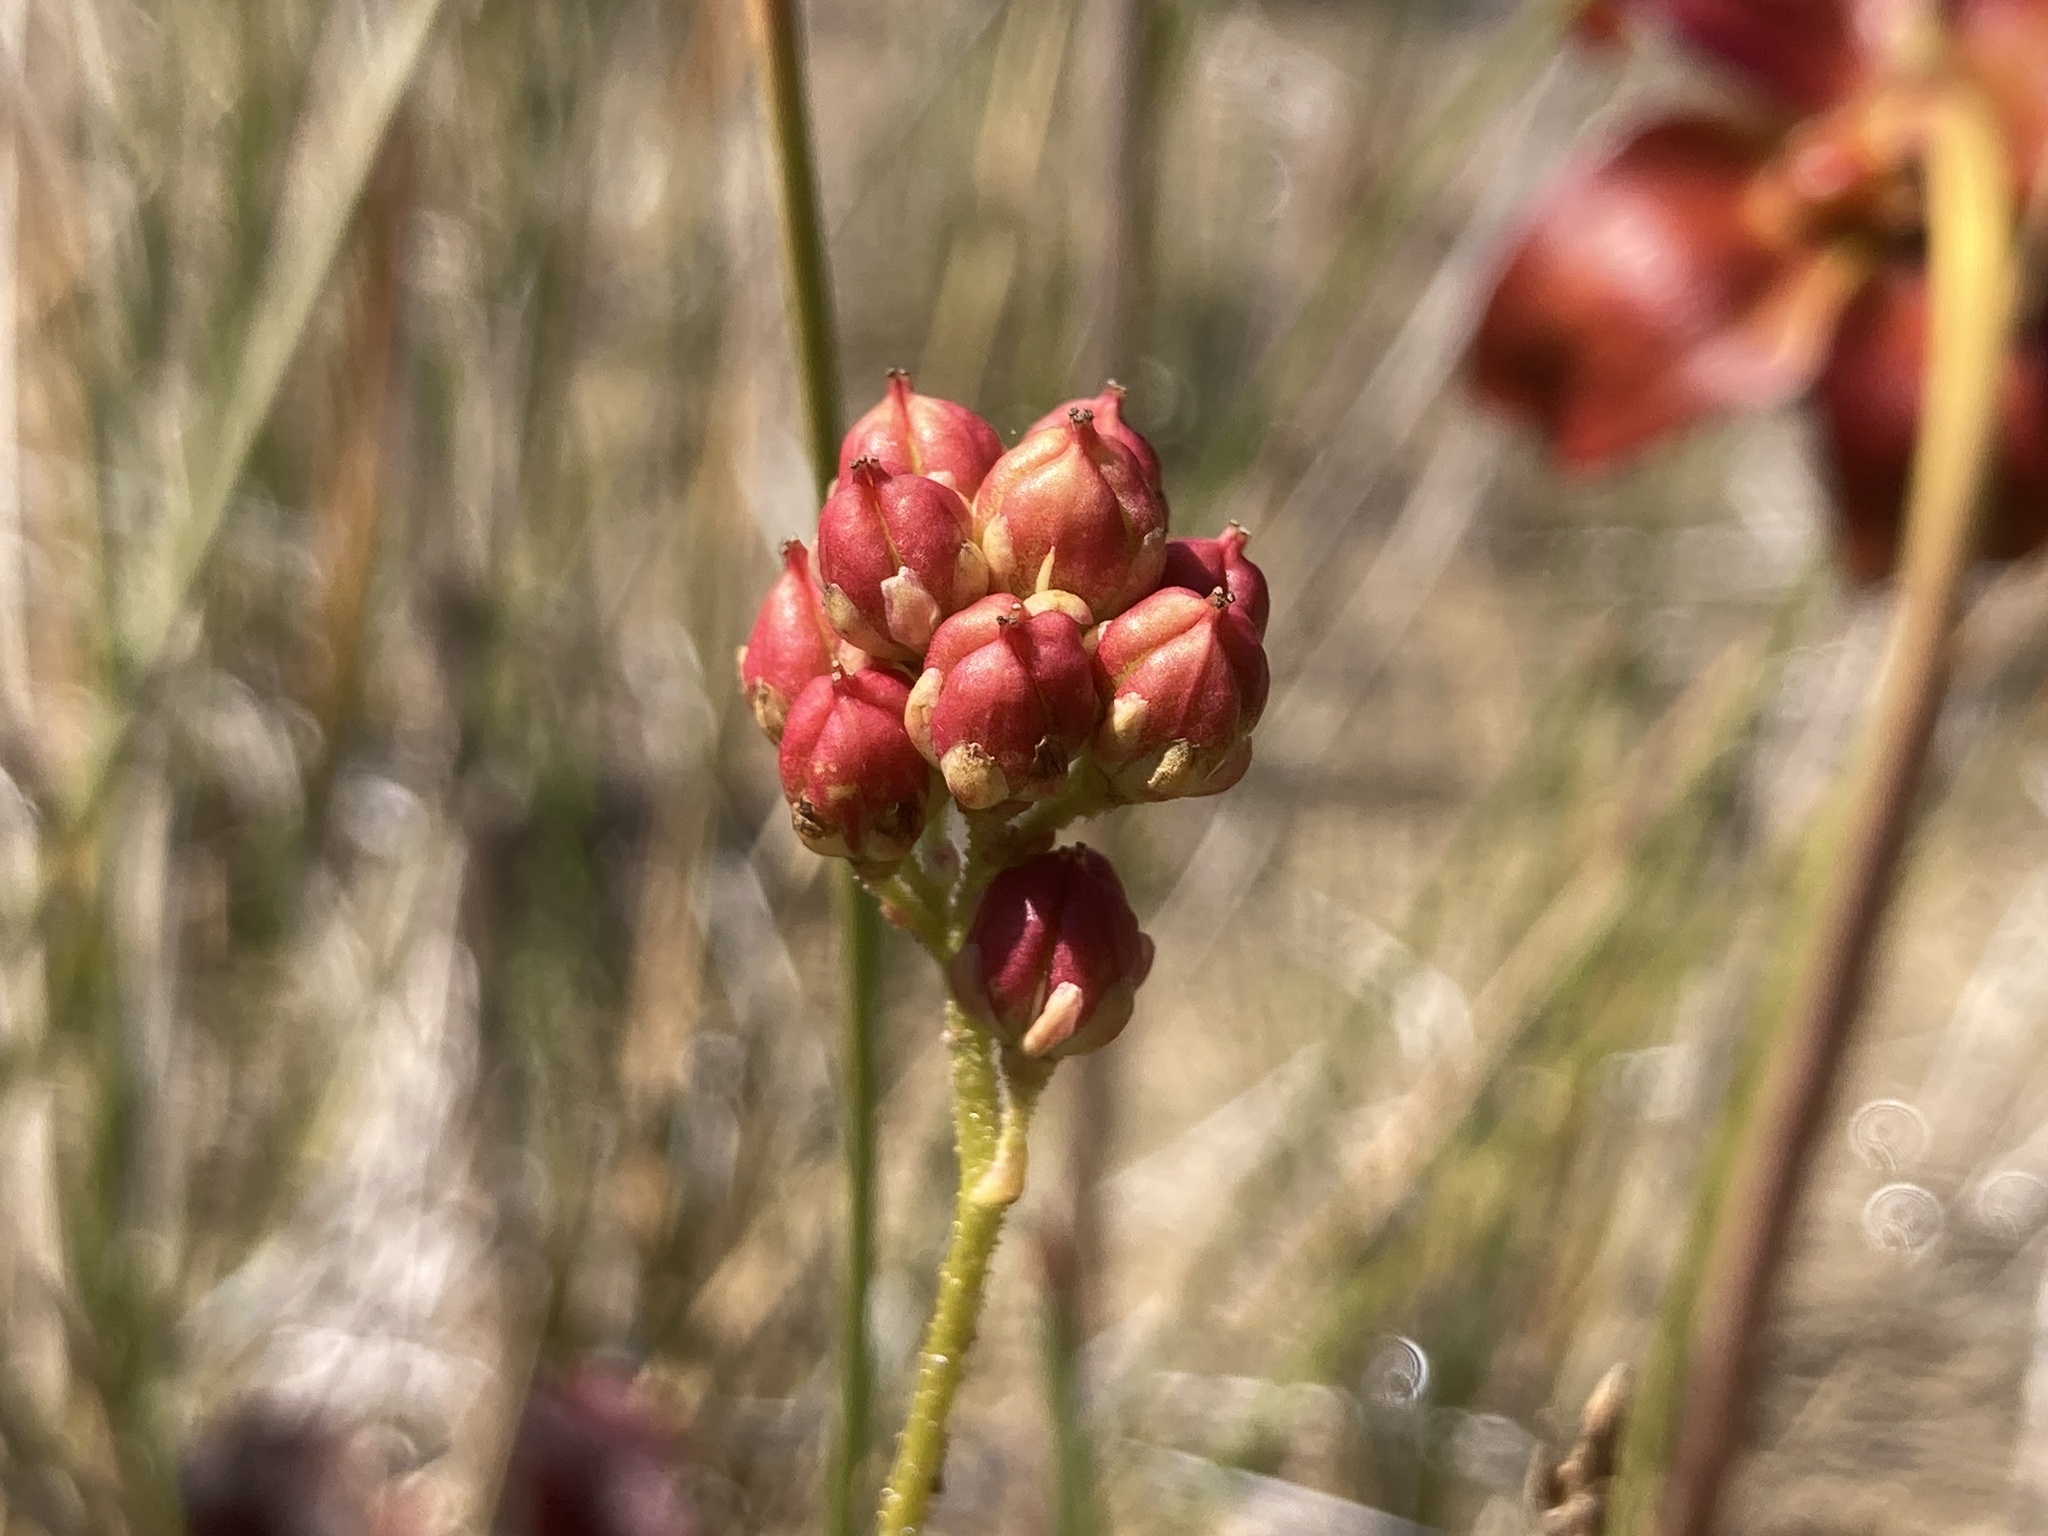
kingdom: Plantae
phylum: Tracheophyta
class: Liliopsida
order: Alismatales
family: Tofieldiaceae
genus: Triantha
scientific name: Triantha glutinosa
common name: Glutinous tofieldia
